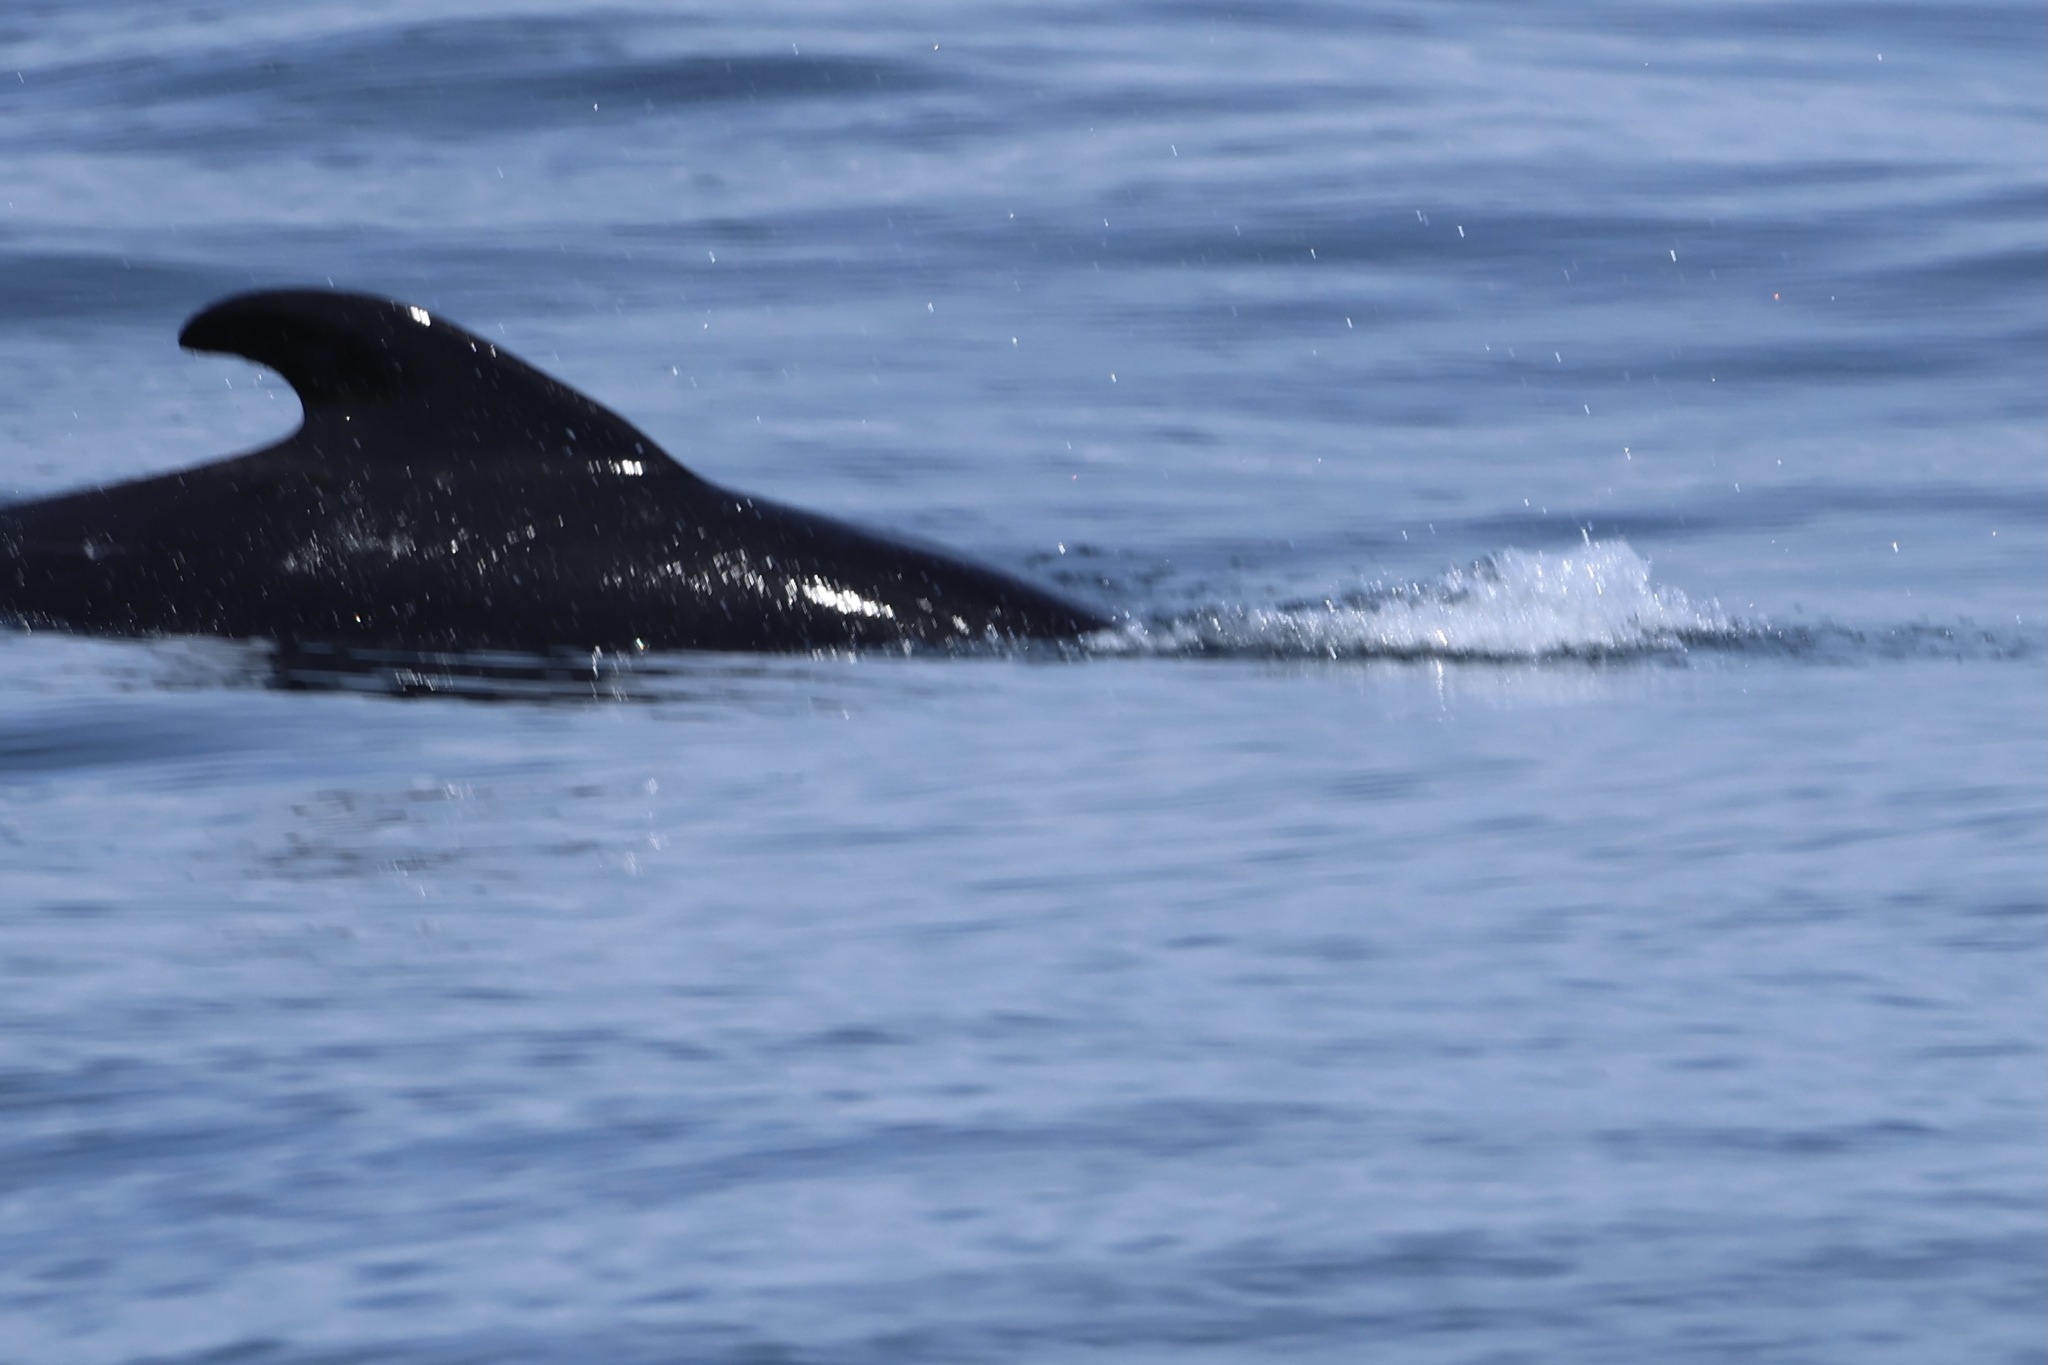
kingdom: Animalia
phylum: Chordata
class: Mammalia
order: Cetacea
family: Delphinidae
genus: Globicephala
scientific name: Globicephala melas
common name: Long-finned pilot whale
